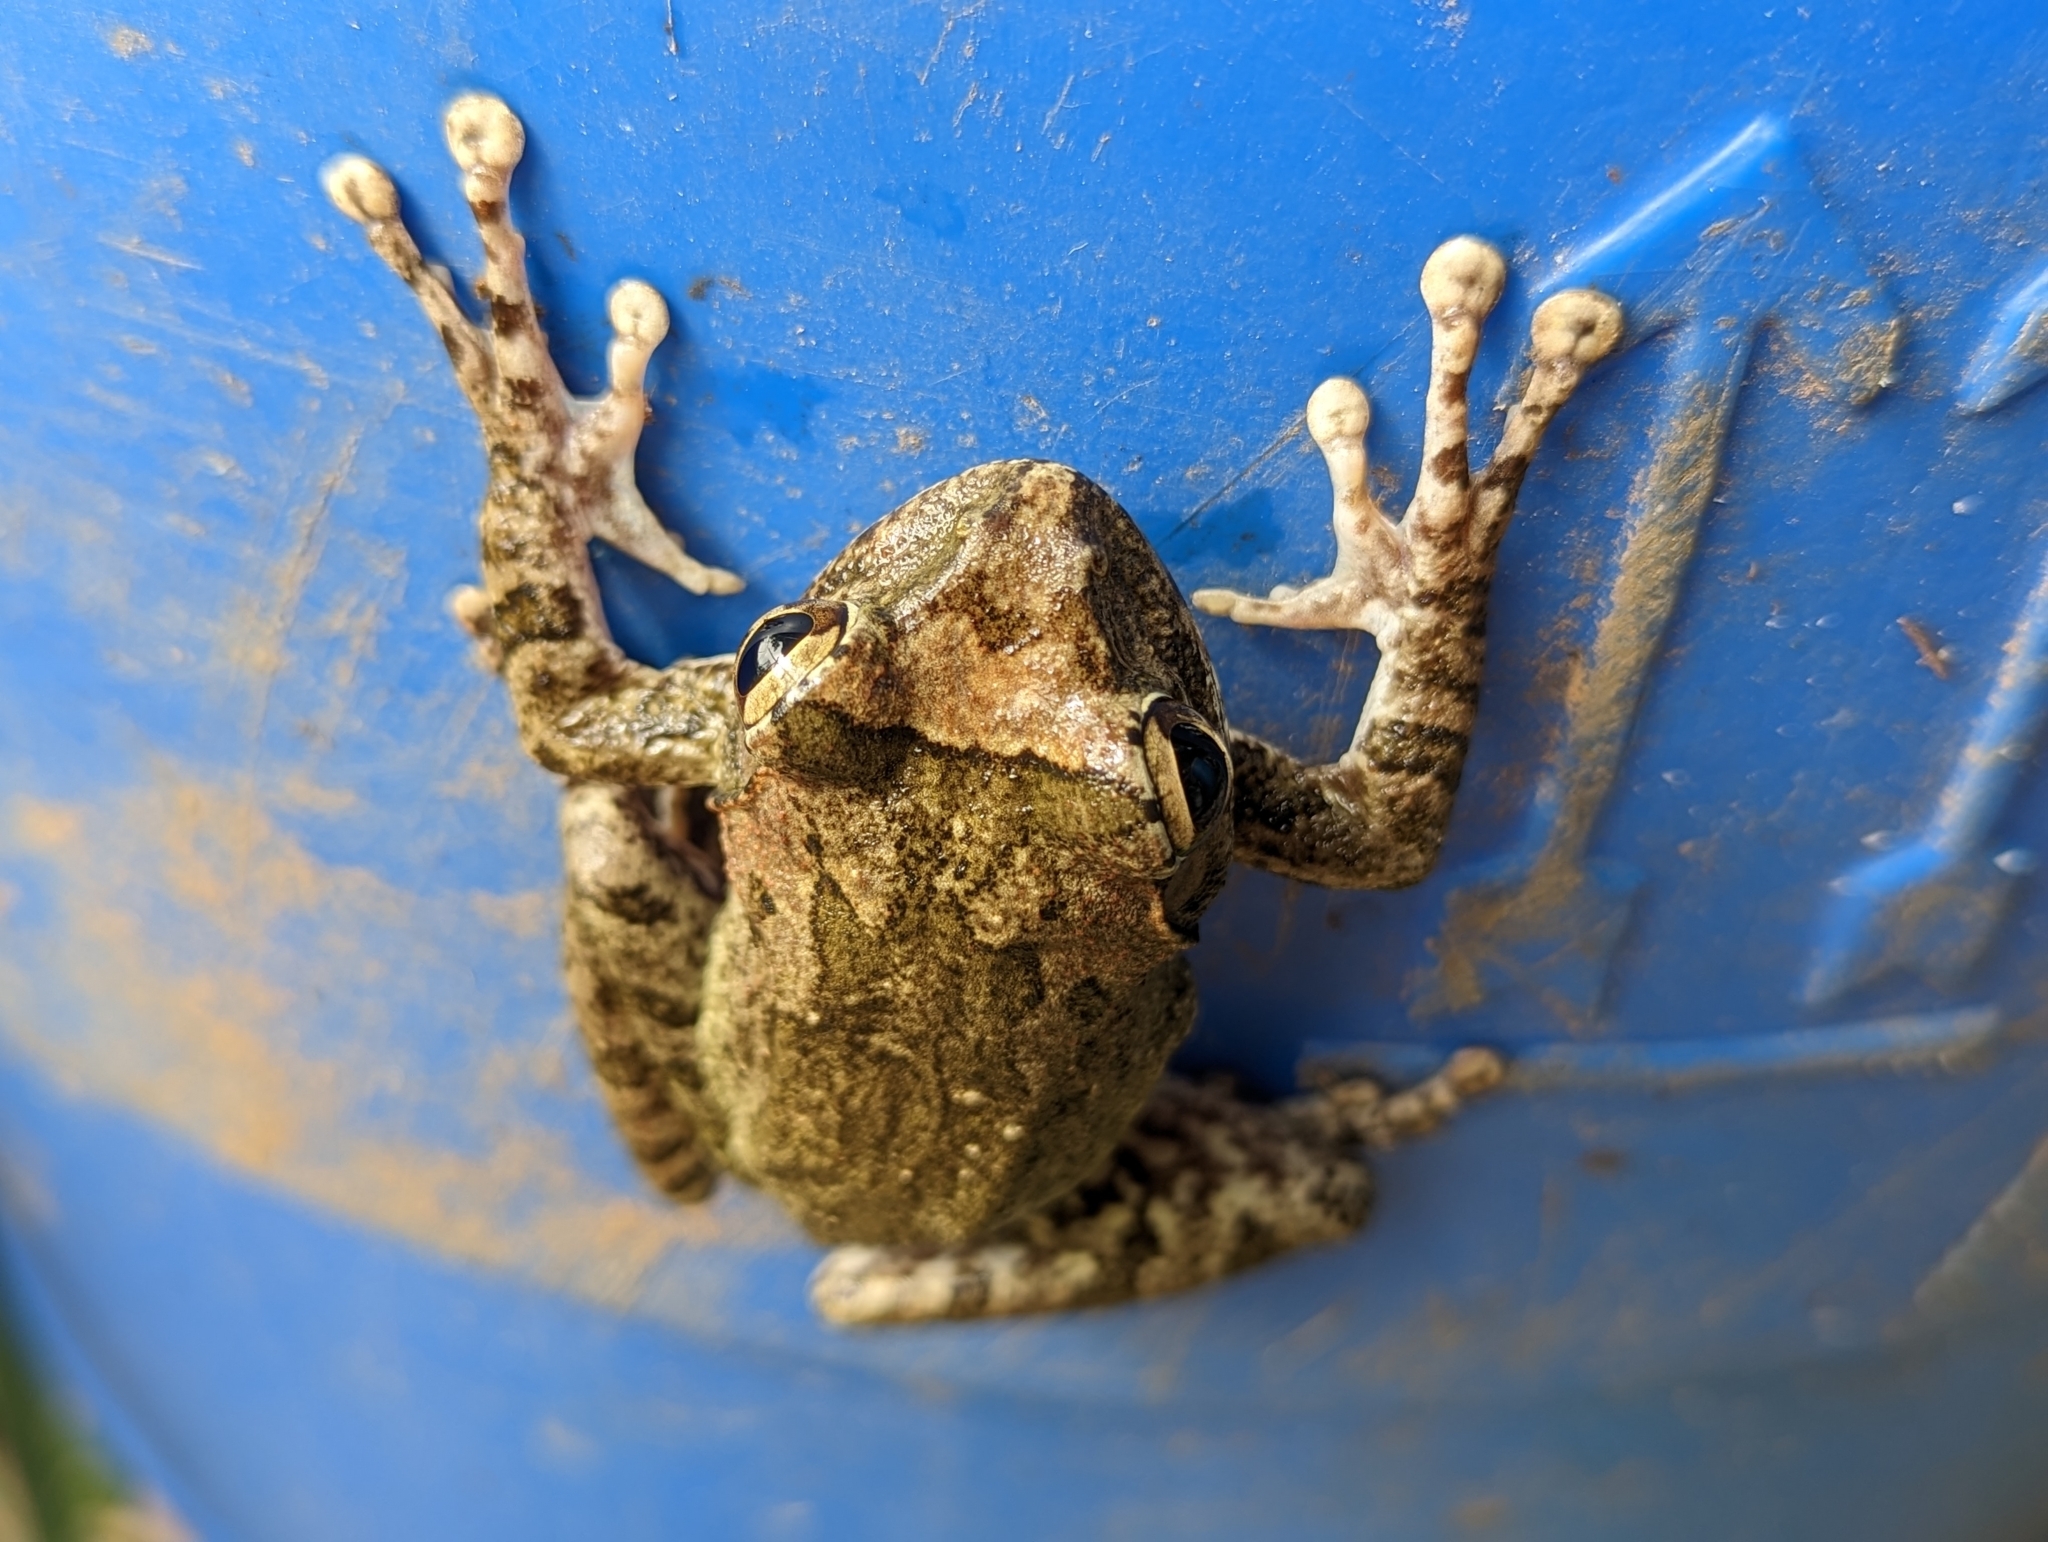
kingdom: Animalia
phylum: Chordata
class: Amphibia
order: Anura
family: Rhacophoridae
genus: Buergeria
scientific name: Buergeria robusta
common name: Brown treefrog
